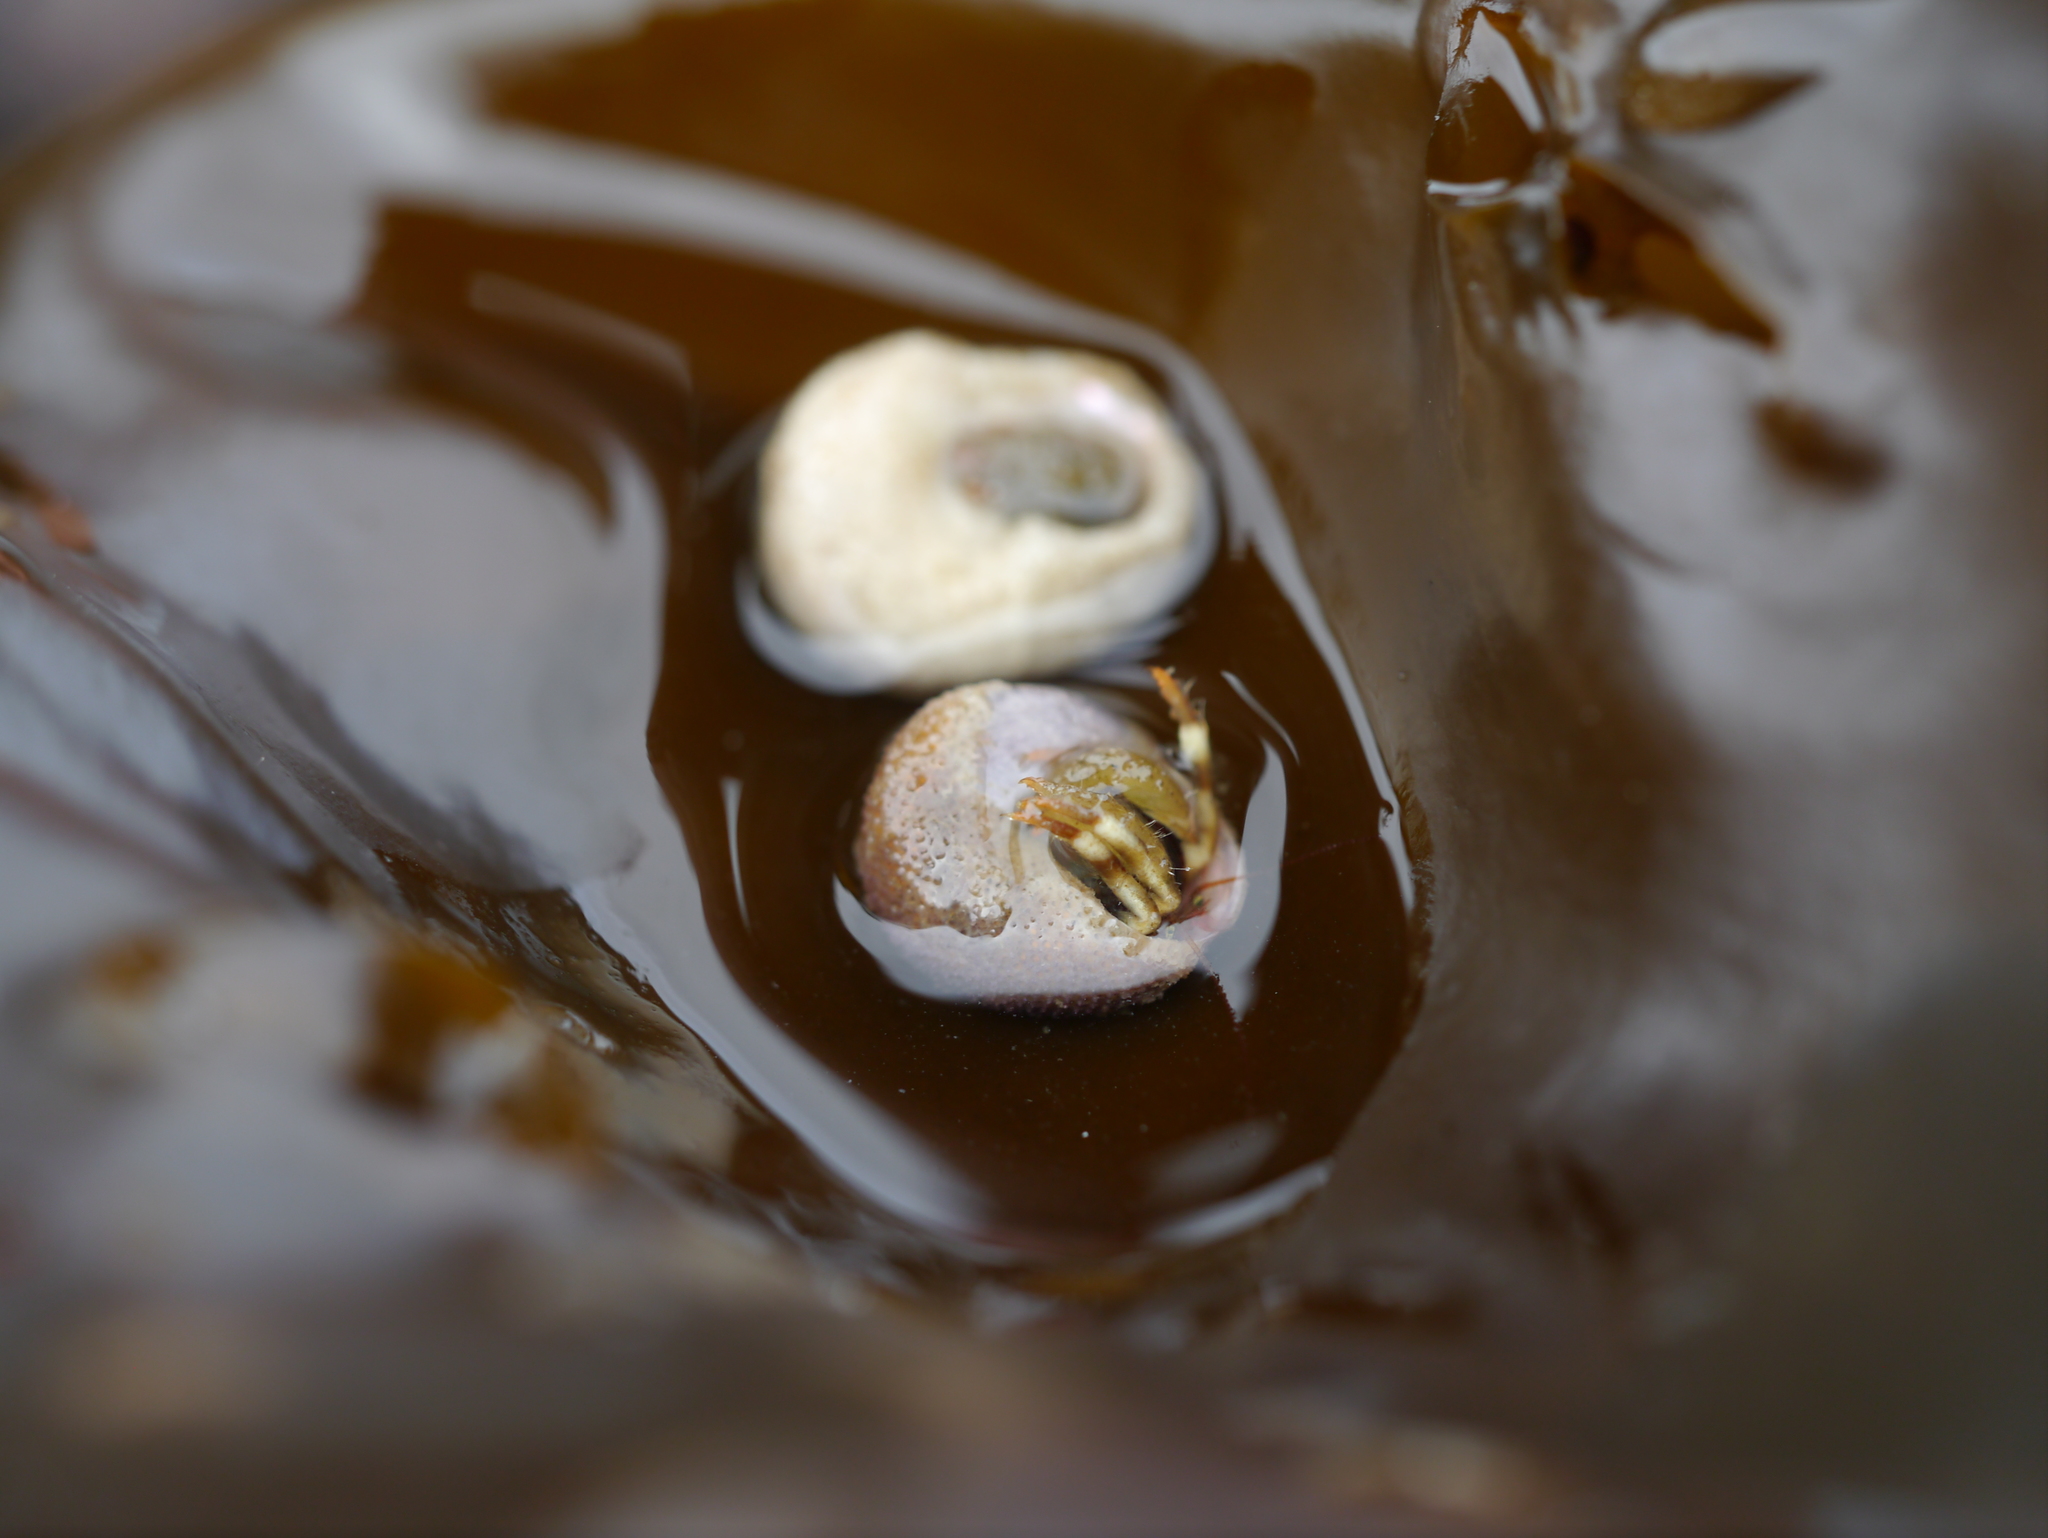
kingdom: Animalia
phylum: Arthropoda
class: Malacostraca
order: Decapoda
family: Paguridae
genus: Pagurus
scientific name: Pagurus
